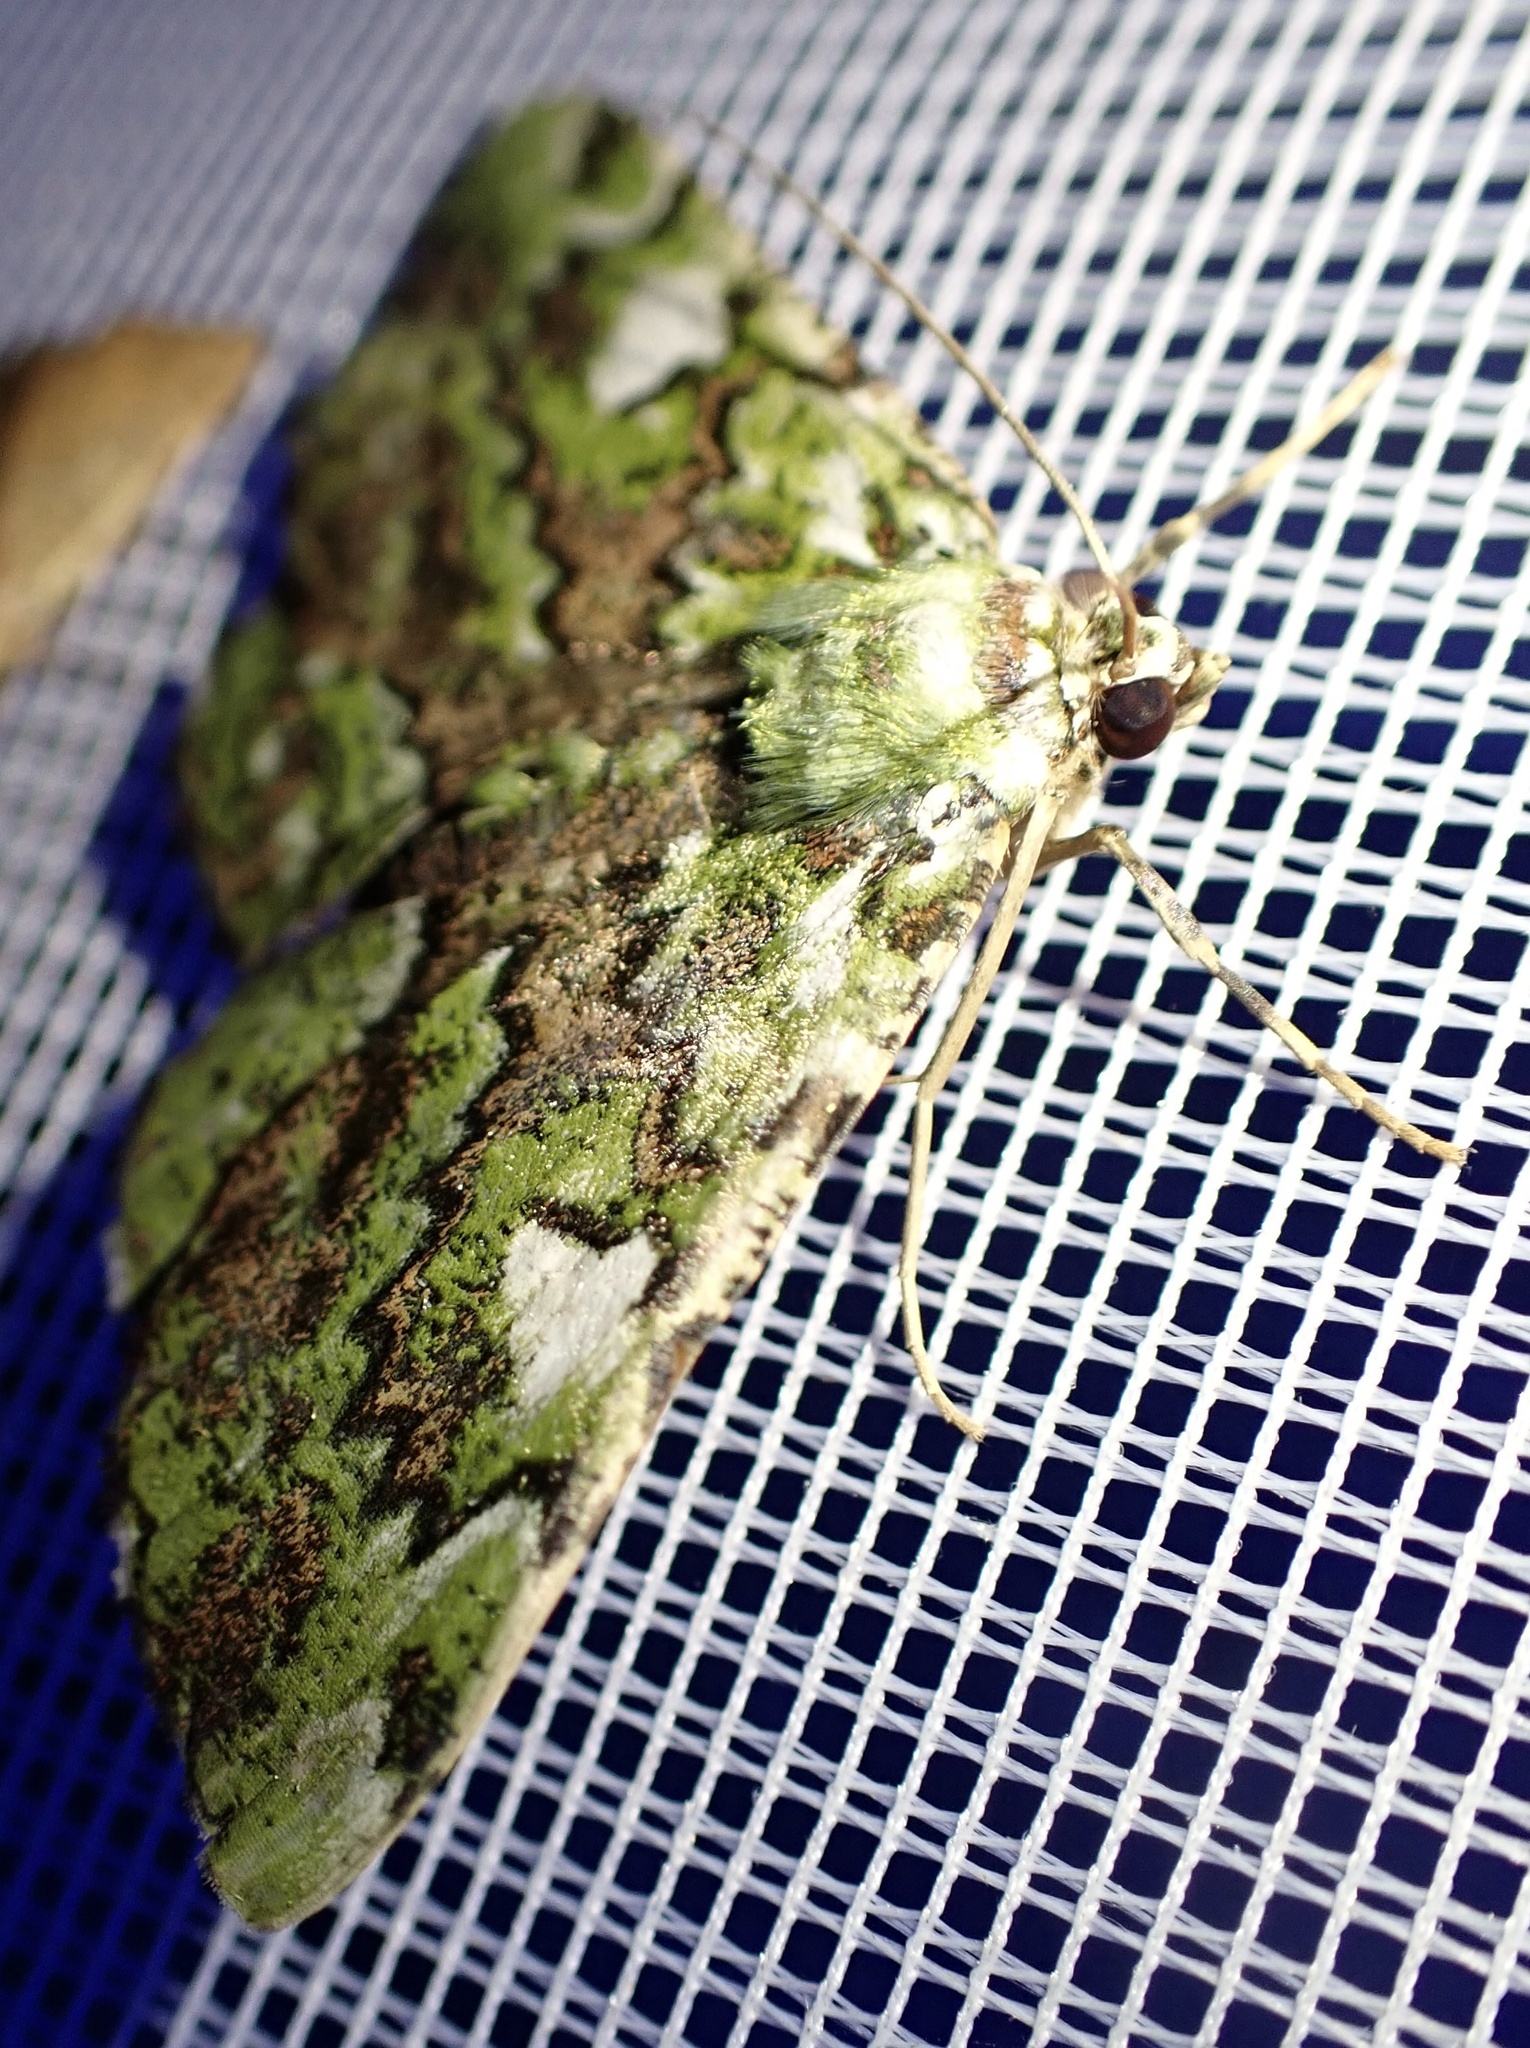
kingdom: Animalia
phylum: Arthropoda
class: Insecta
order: Lepidoptera
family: Geometridae
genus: Aeolochroma
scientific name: Aeolochroma albifusaria
